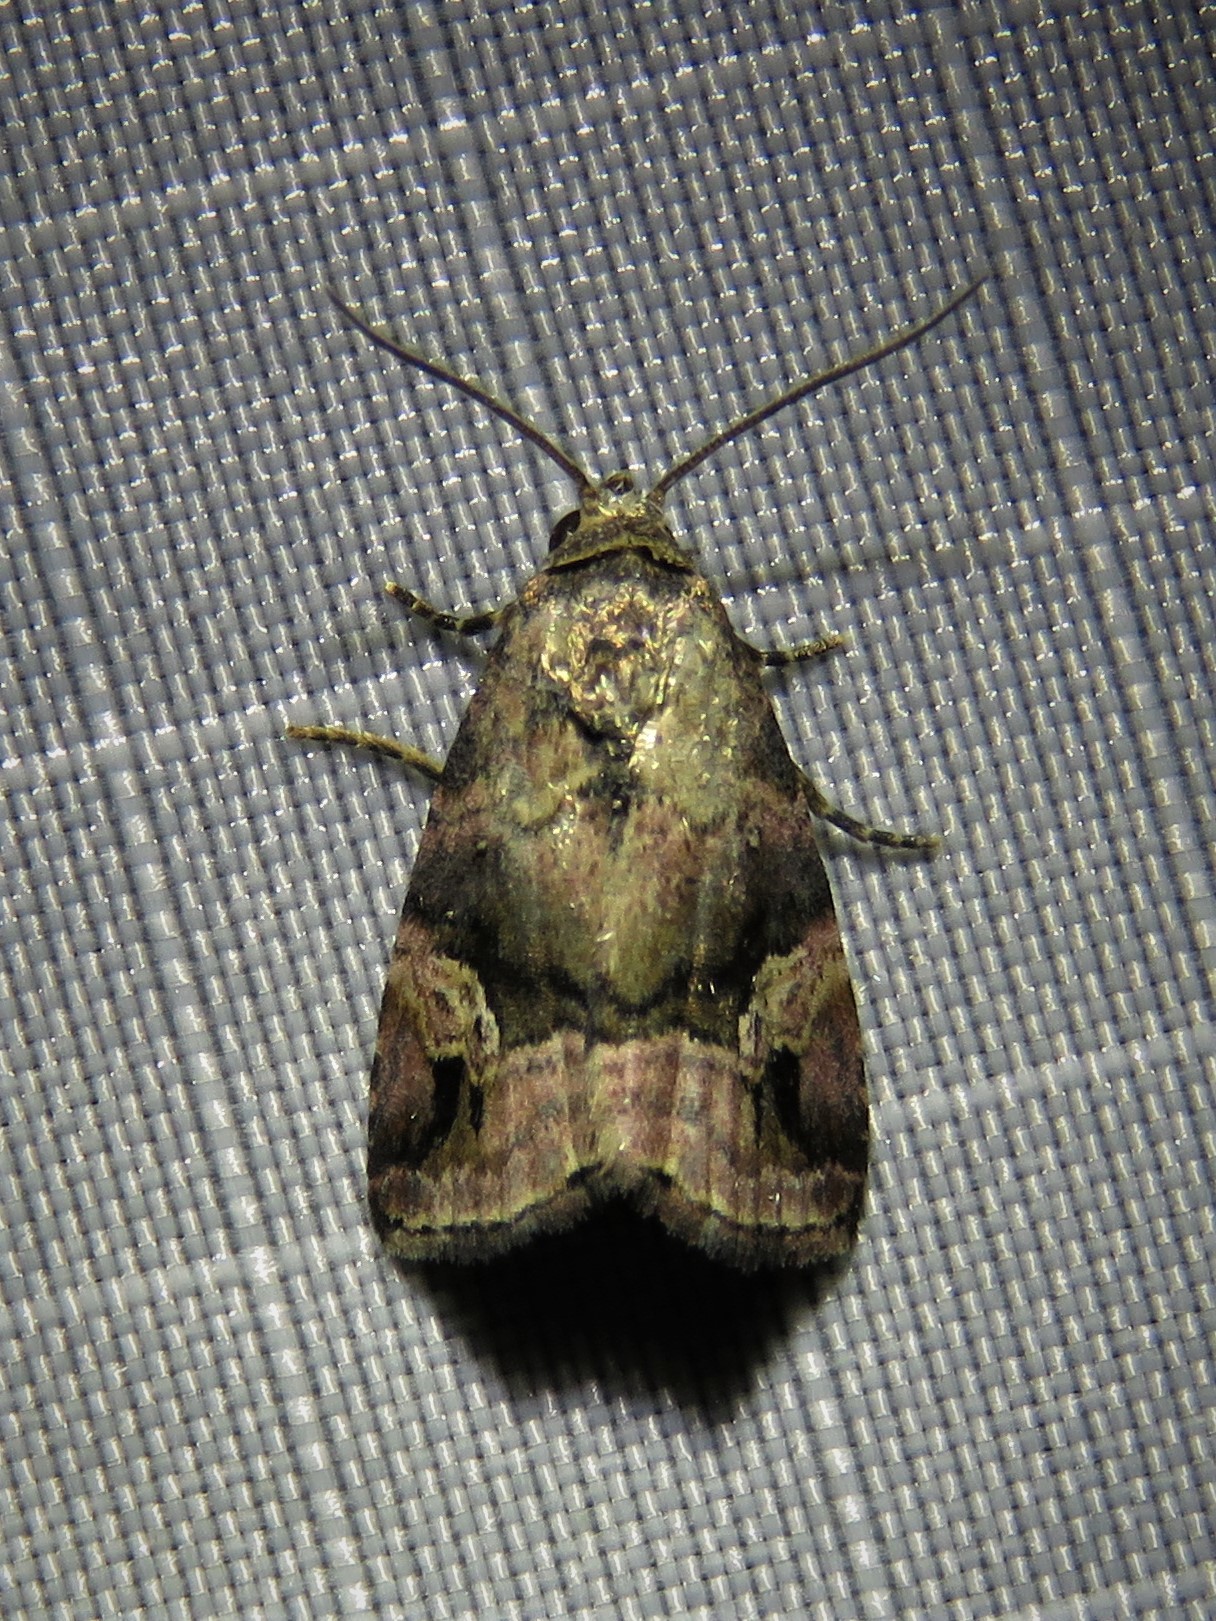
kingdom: Animalia
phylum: Arthropoda
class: Insecta
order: Lepidoptera
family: Noctuidae
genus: Ozarba
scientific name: Ozarba nebula
